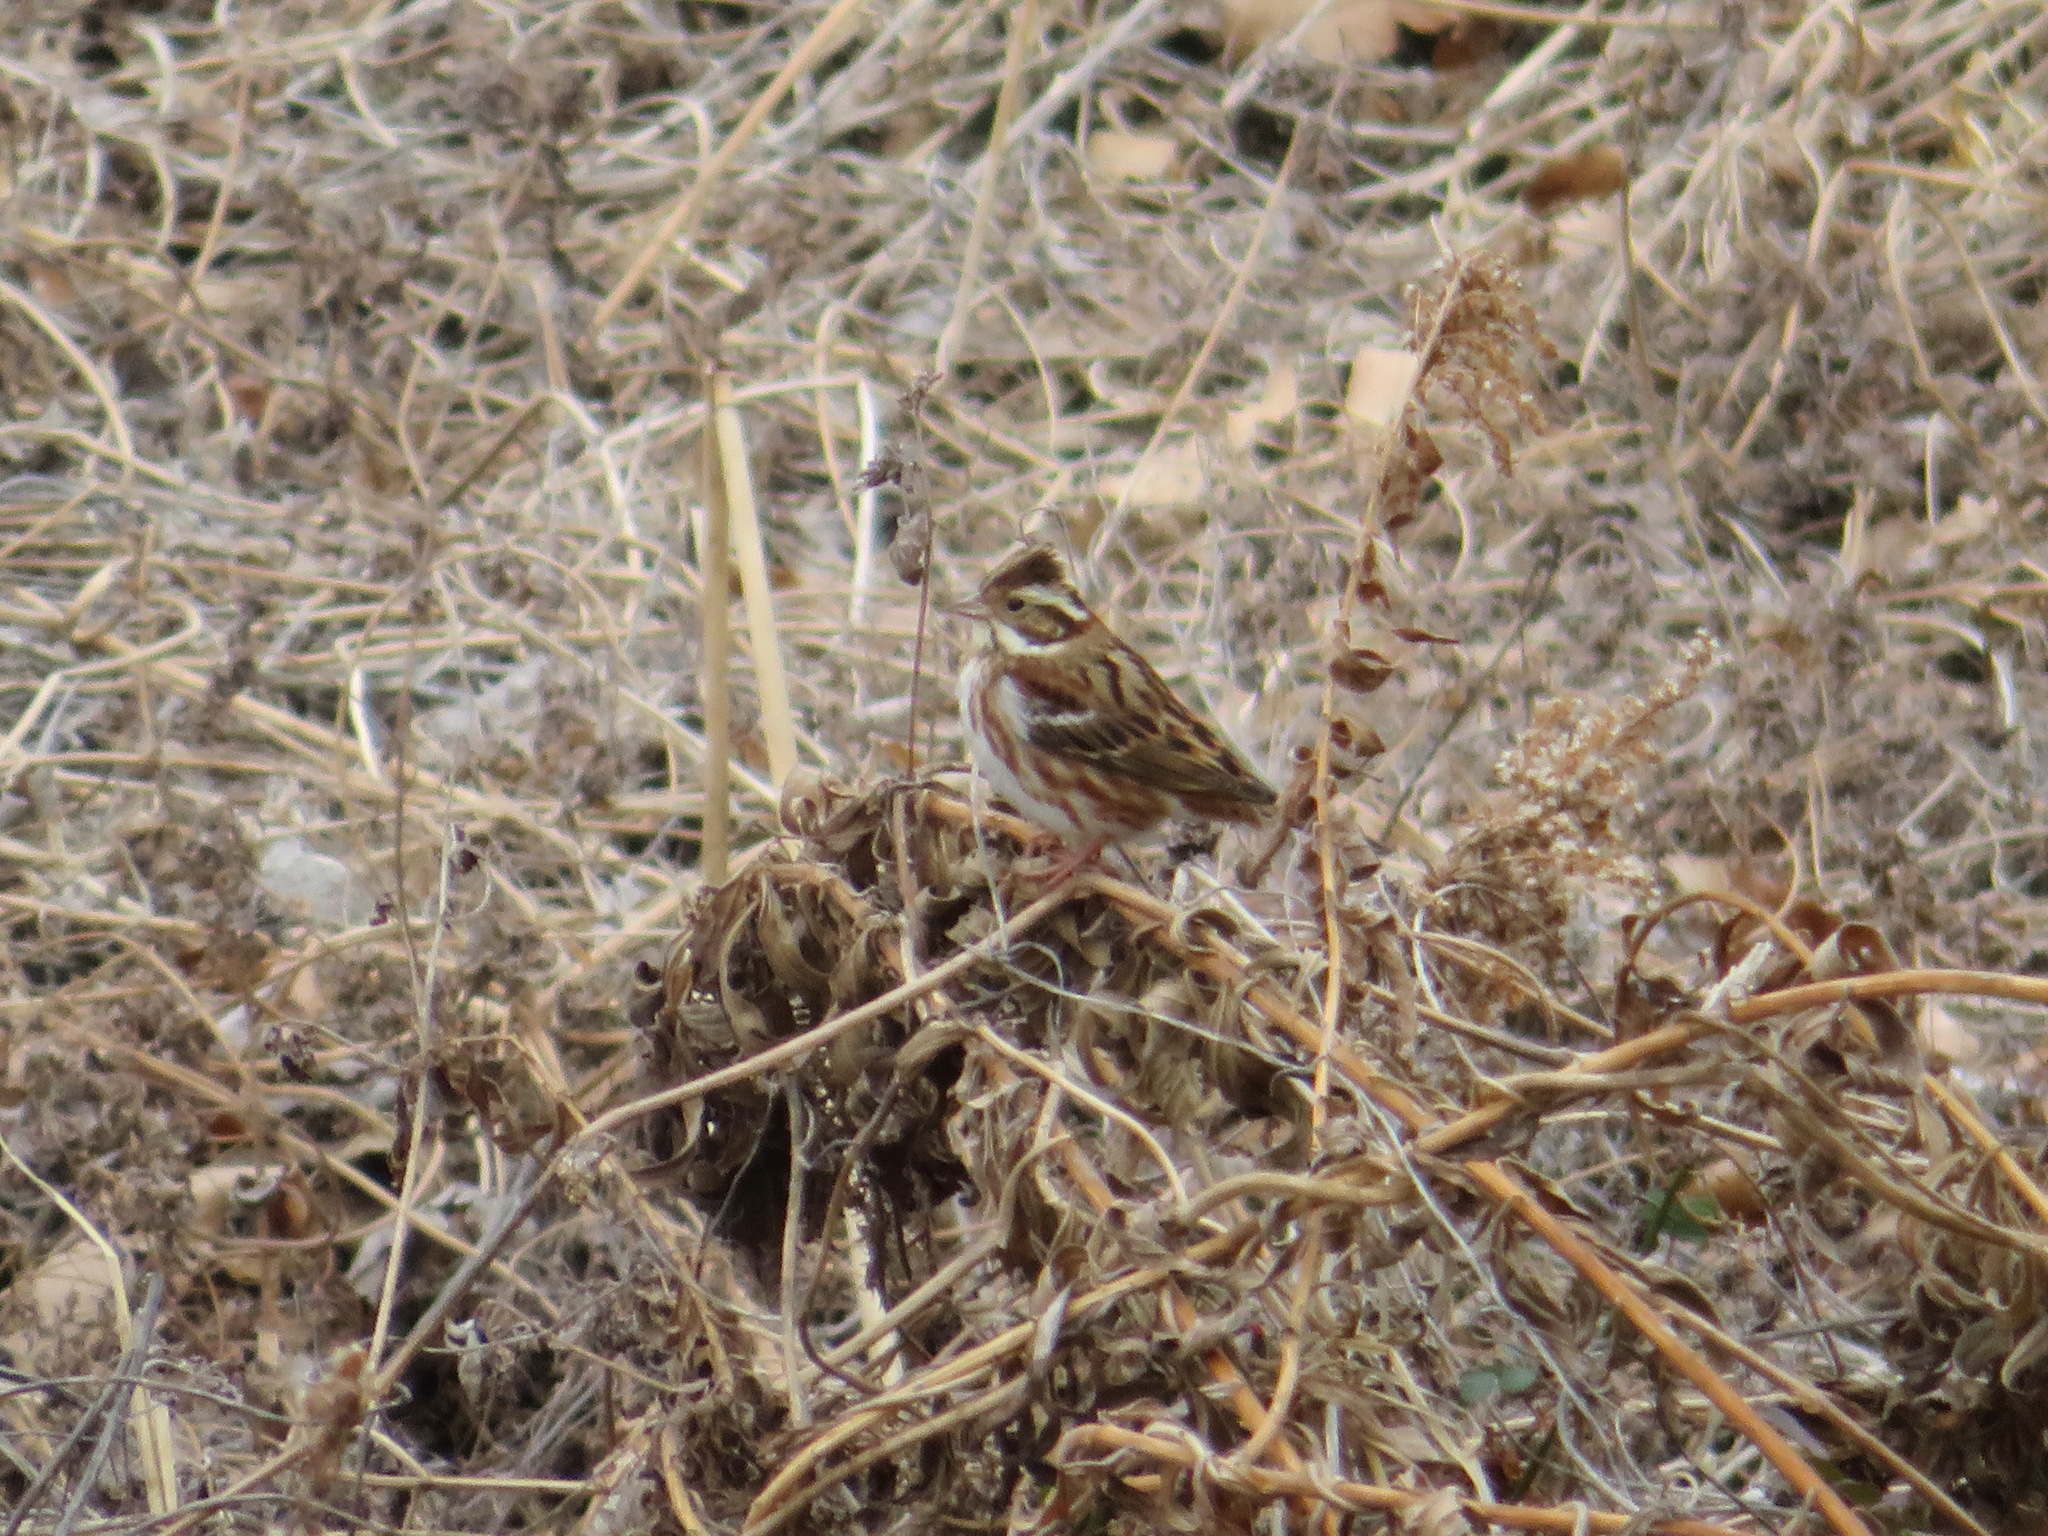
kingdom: Animalia
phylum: Chordata
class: Aves
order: Passeriformes
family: Emberizidae
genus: Emberiza
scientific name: Emberiza rustica
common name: Rustic bunting
